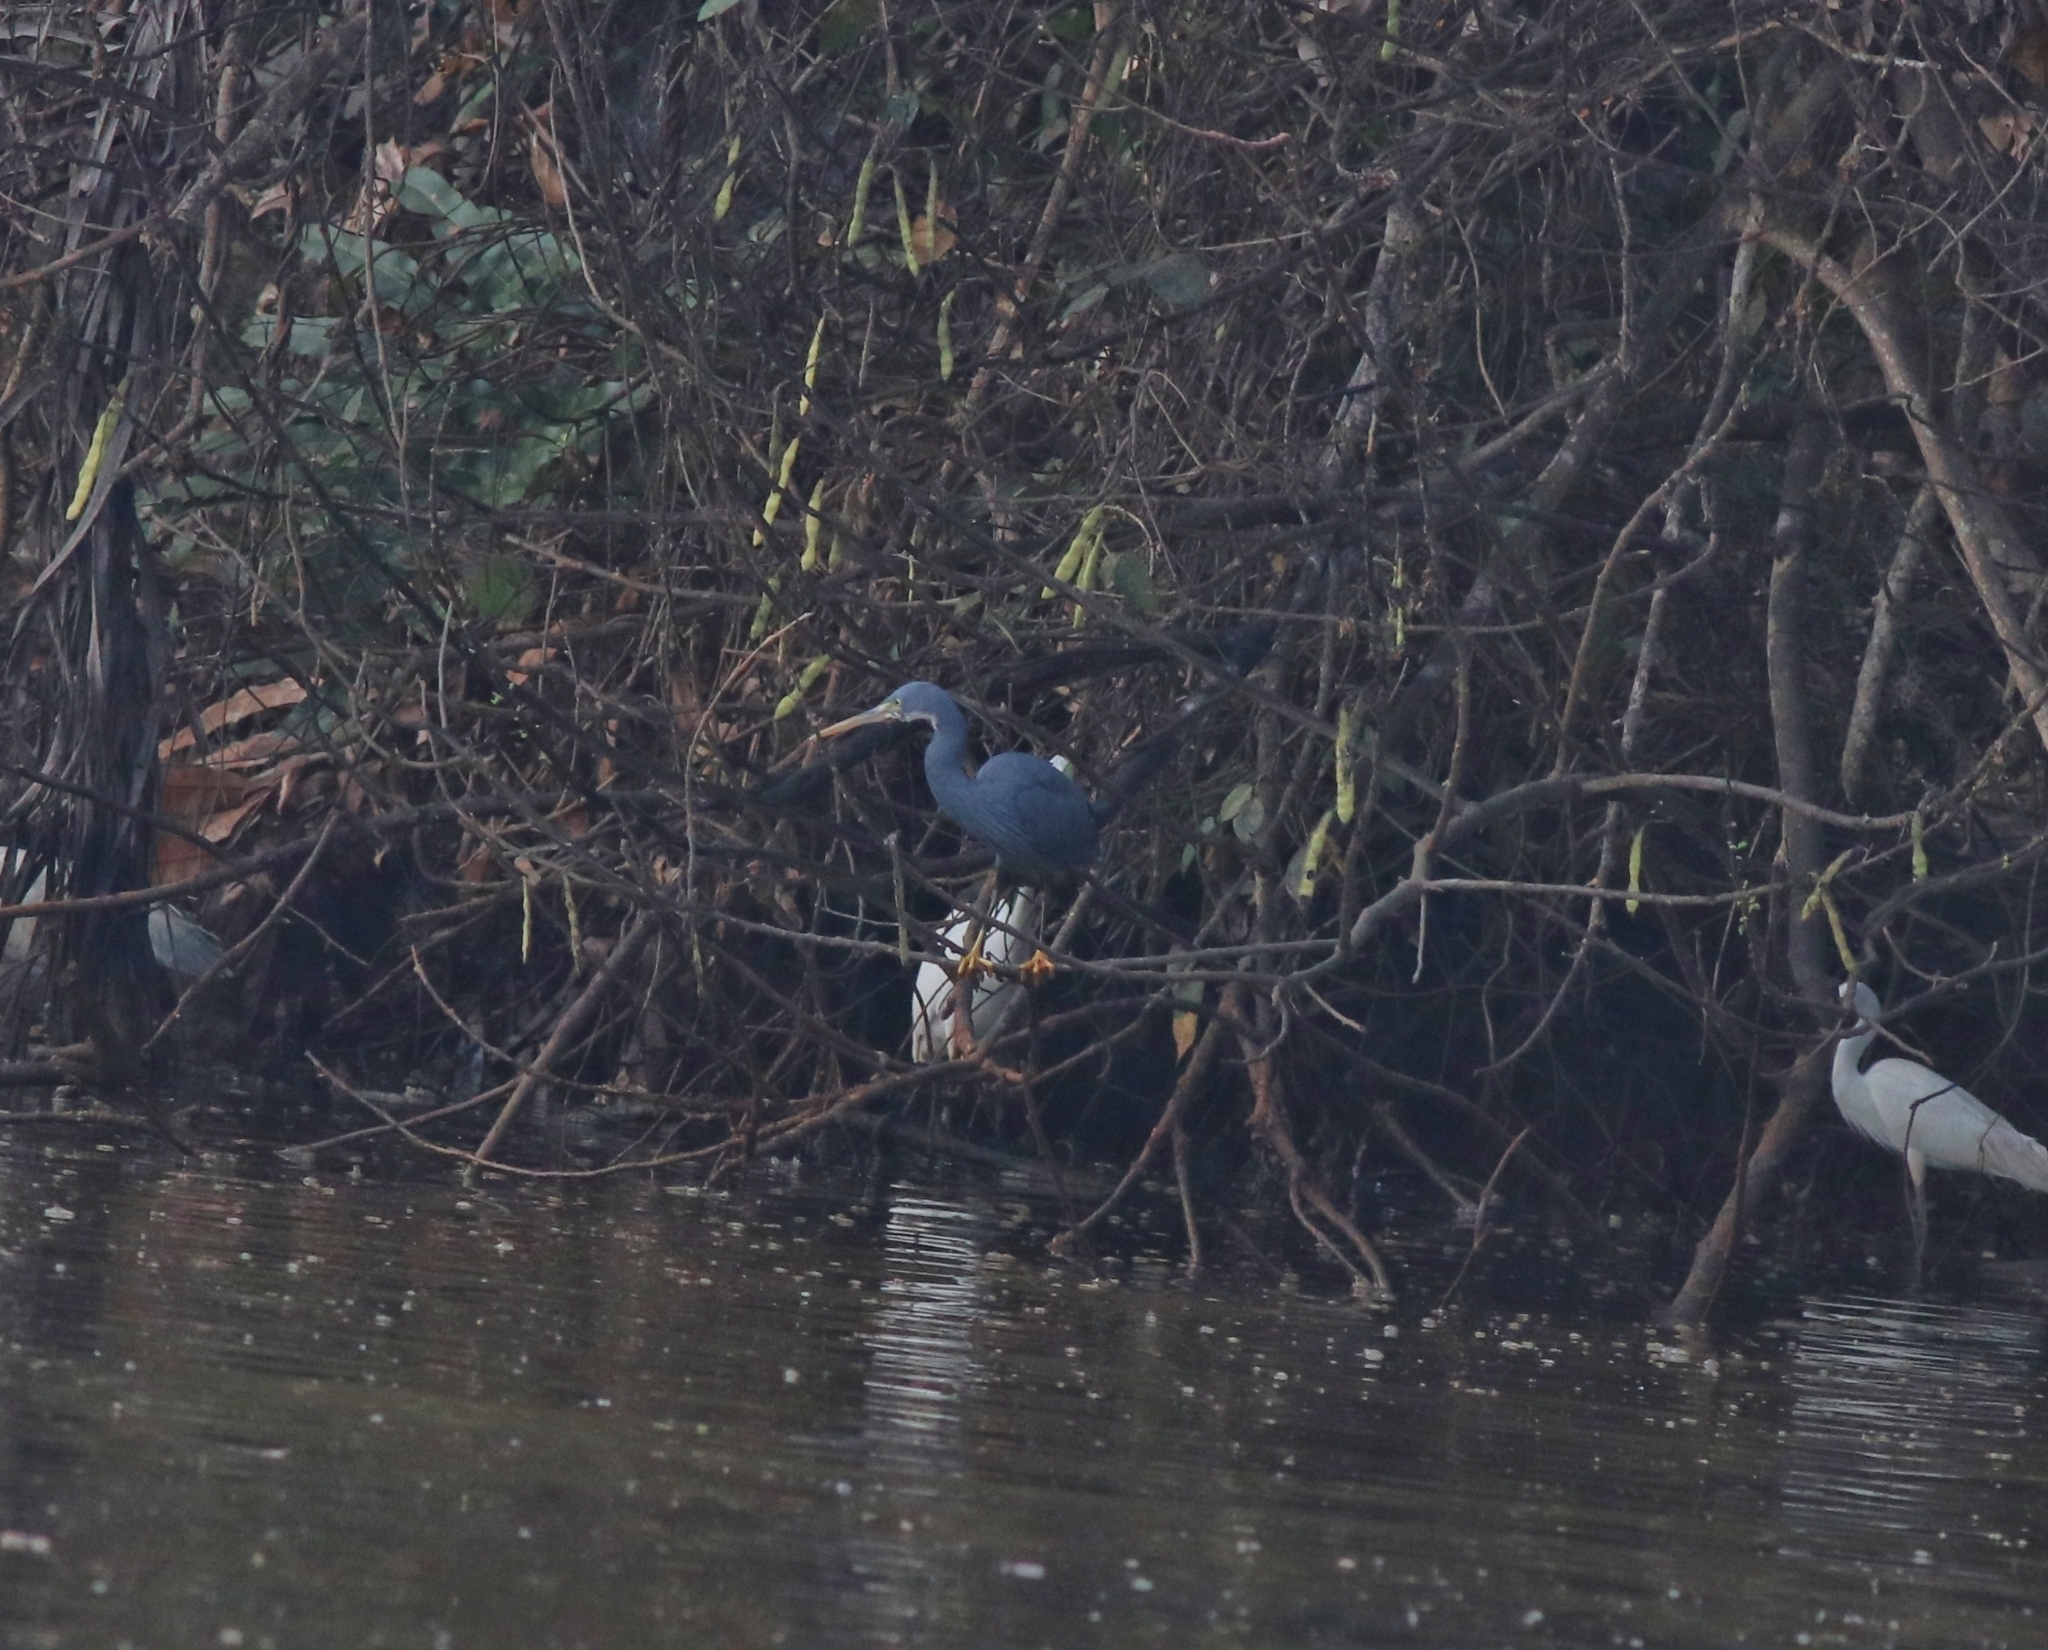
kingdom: Animalia
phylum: Chordata
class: Aves
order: Pelecaniformes
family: Ardeidae
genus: Egretta
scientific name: Egretta gularis
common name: Western reef-heron
